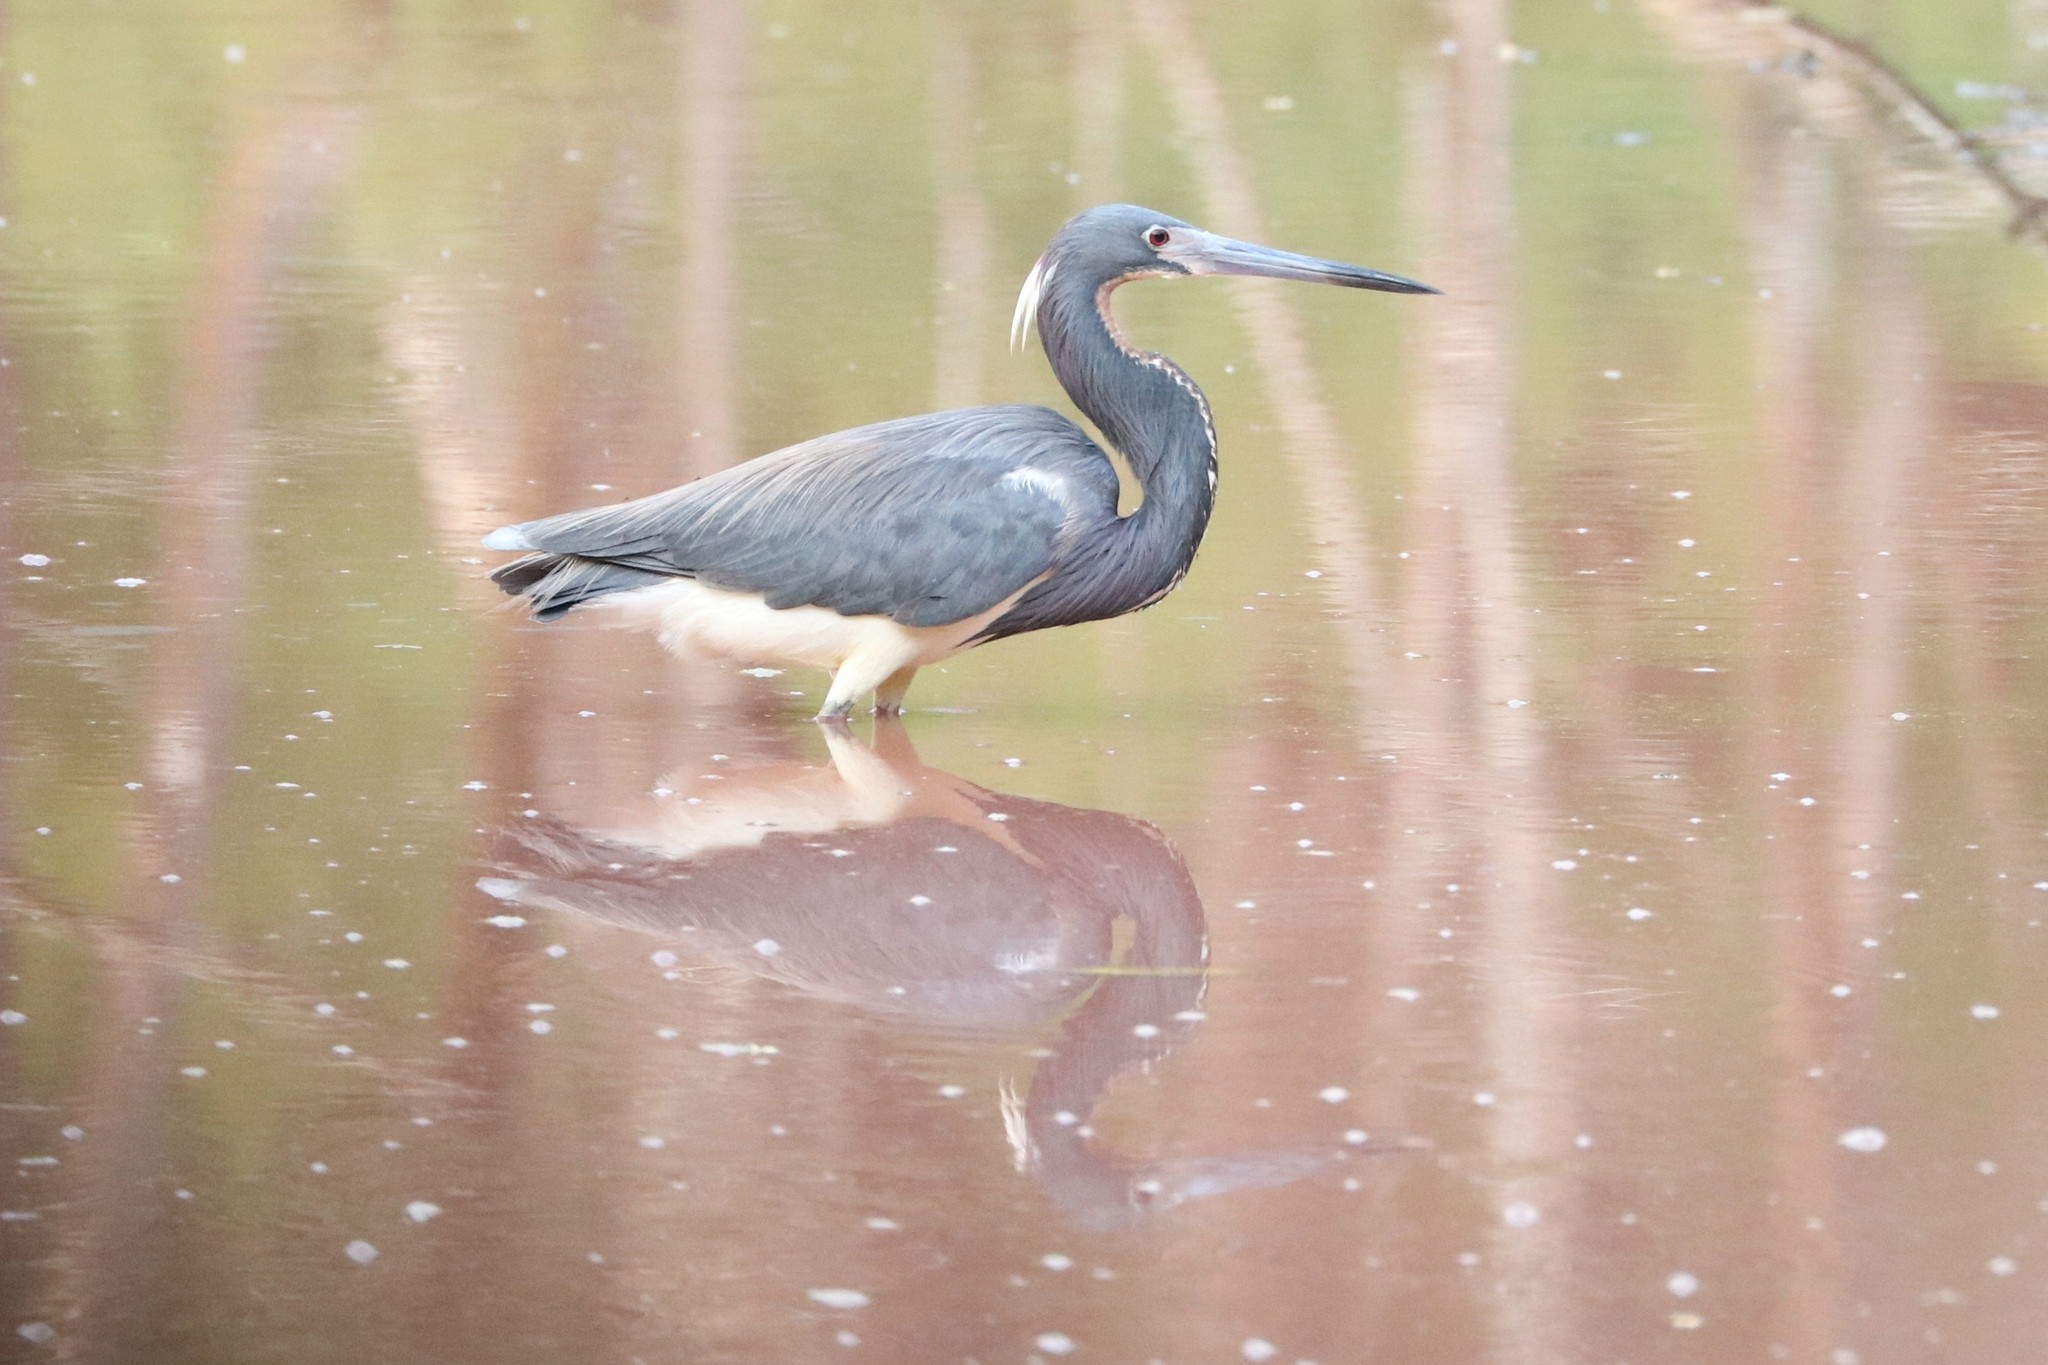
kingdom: Animalia
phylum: Chordata
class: Aves
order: Pelecaniformes
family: Ardeidae
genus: Egretta
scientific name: Egretta tricolor
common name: Tricolored heron
